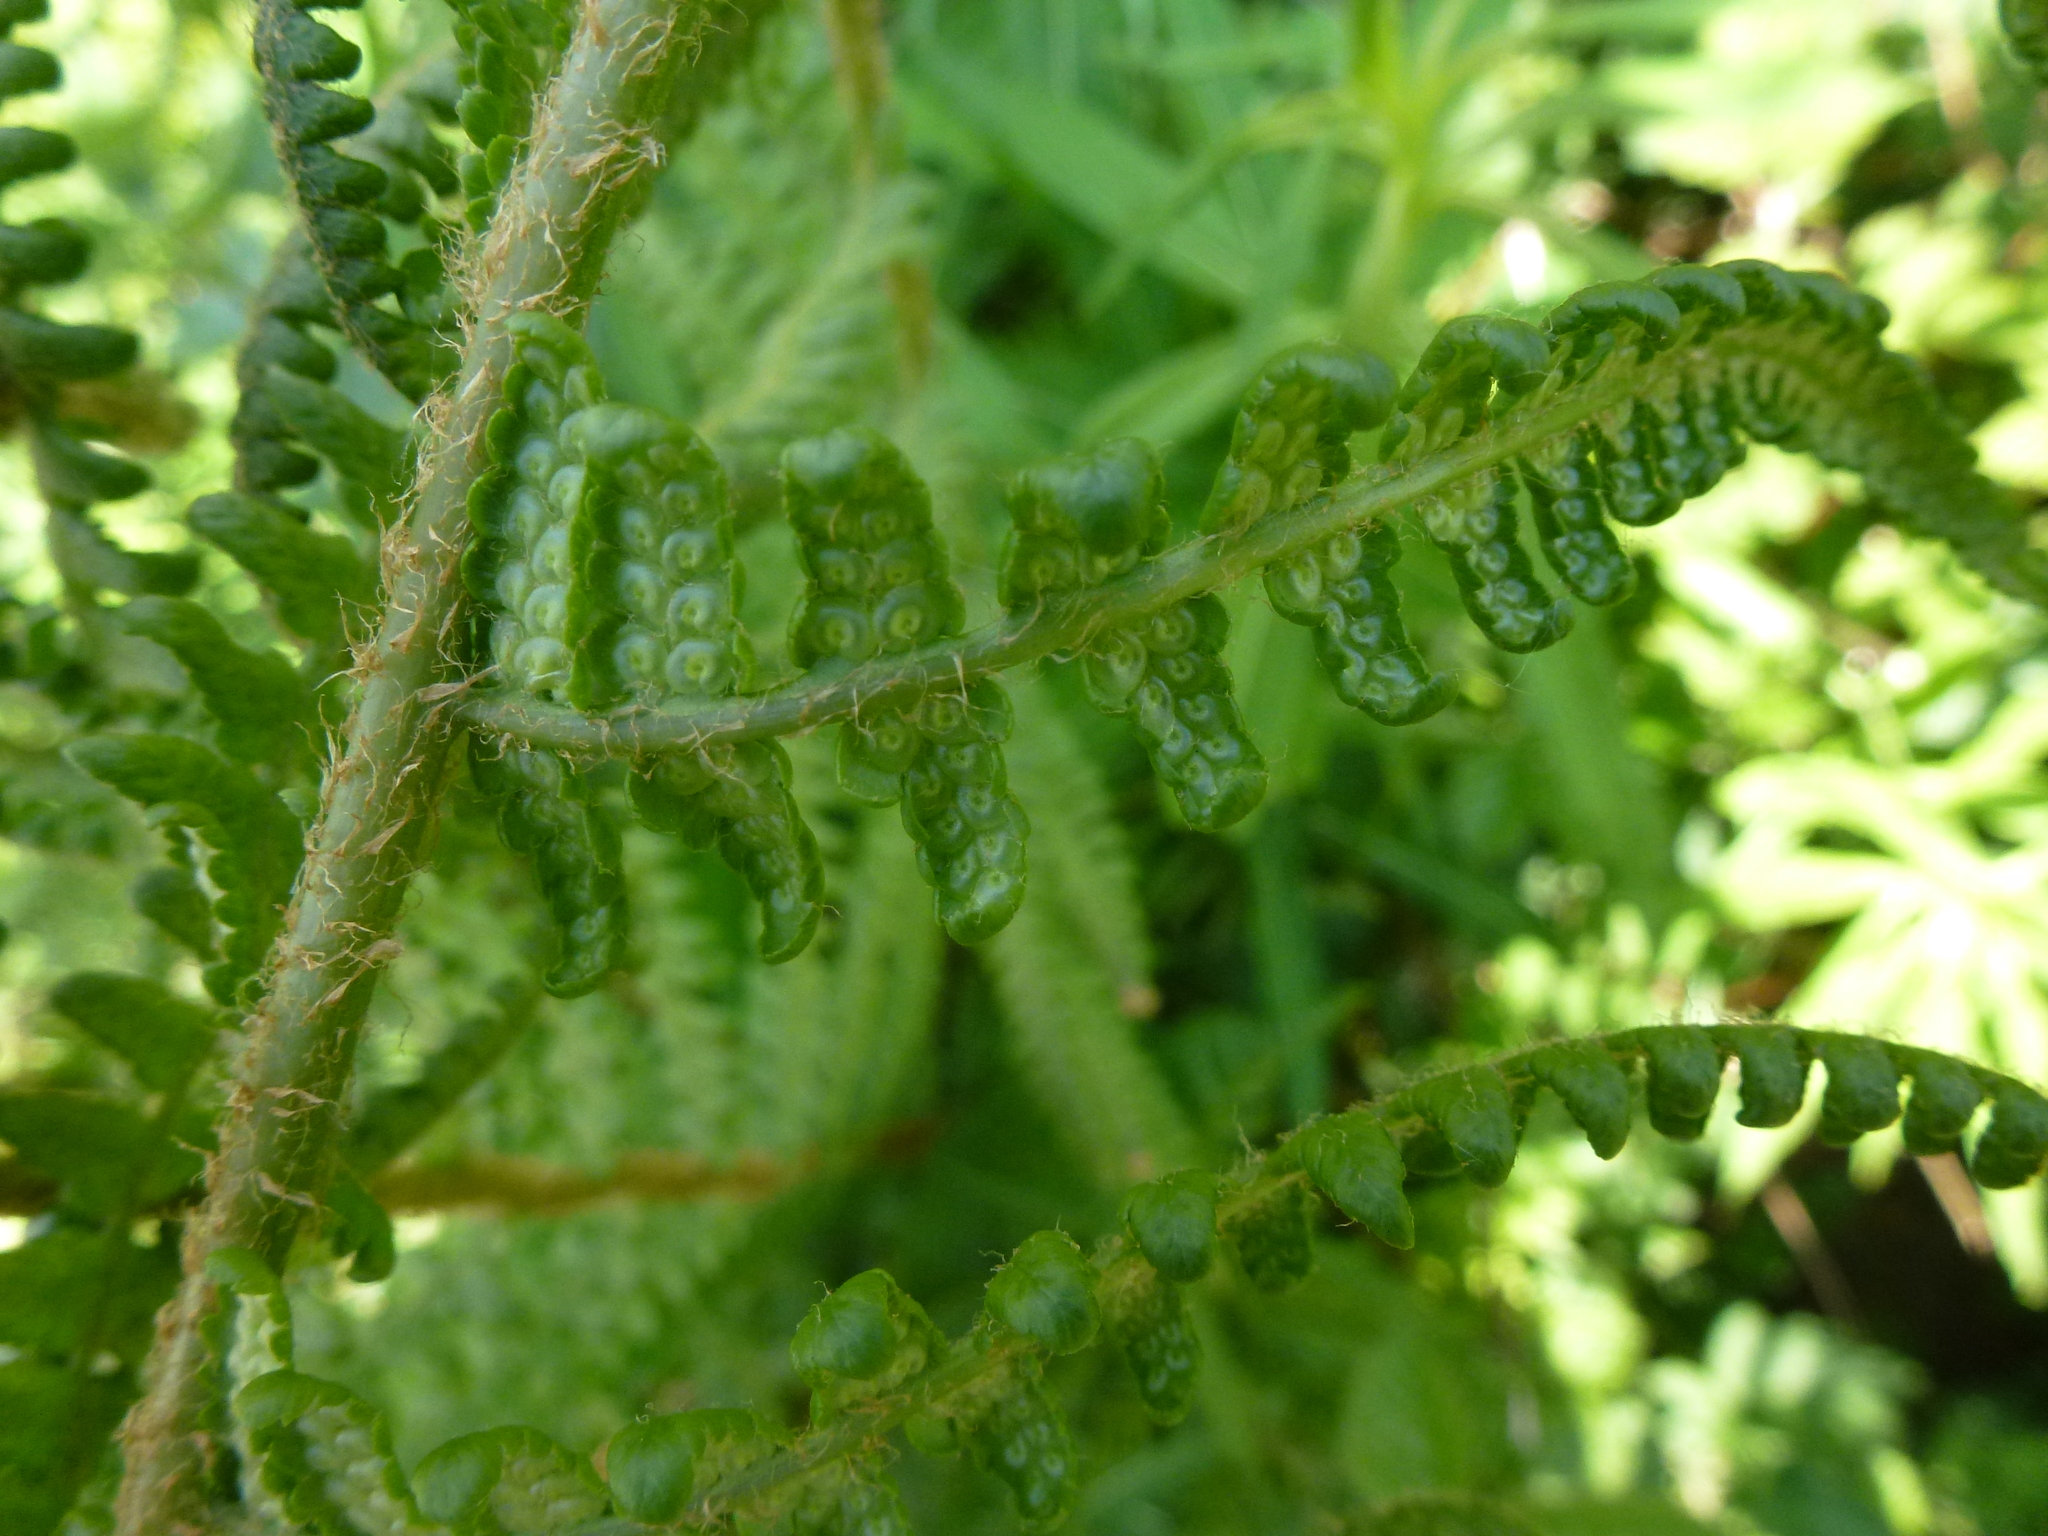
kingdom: Plantae
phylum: Tracheophyta
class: Polypodiopsida
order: Polypodiales
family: Dryopteridaceae
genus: Dryopteris
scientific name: Dryopteris filix-mas
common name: Male fern
